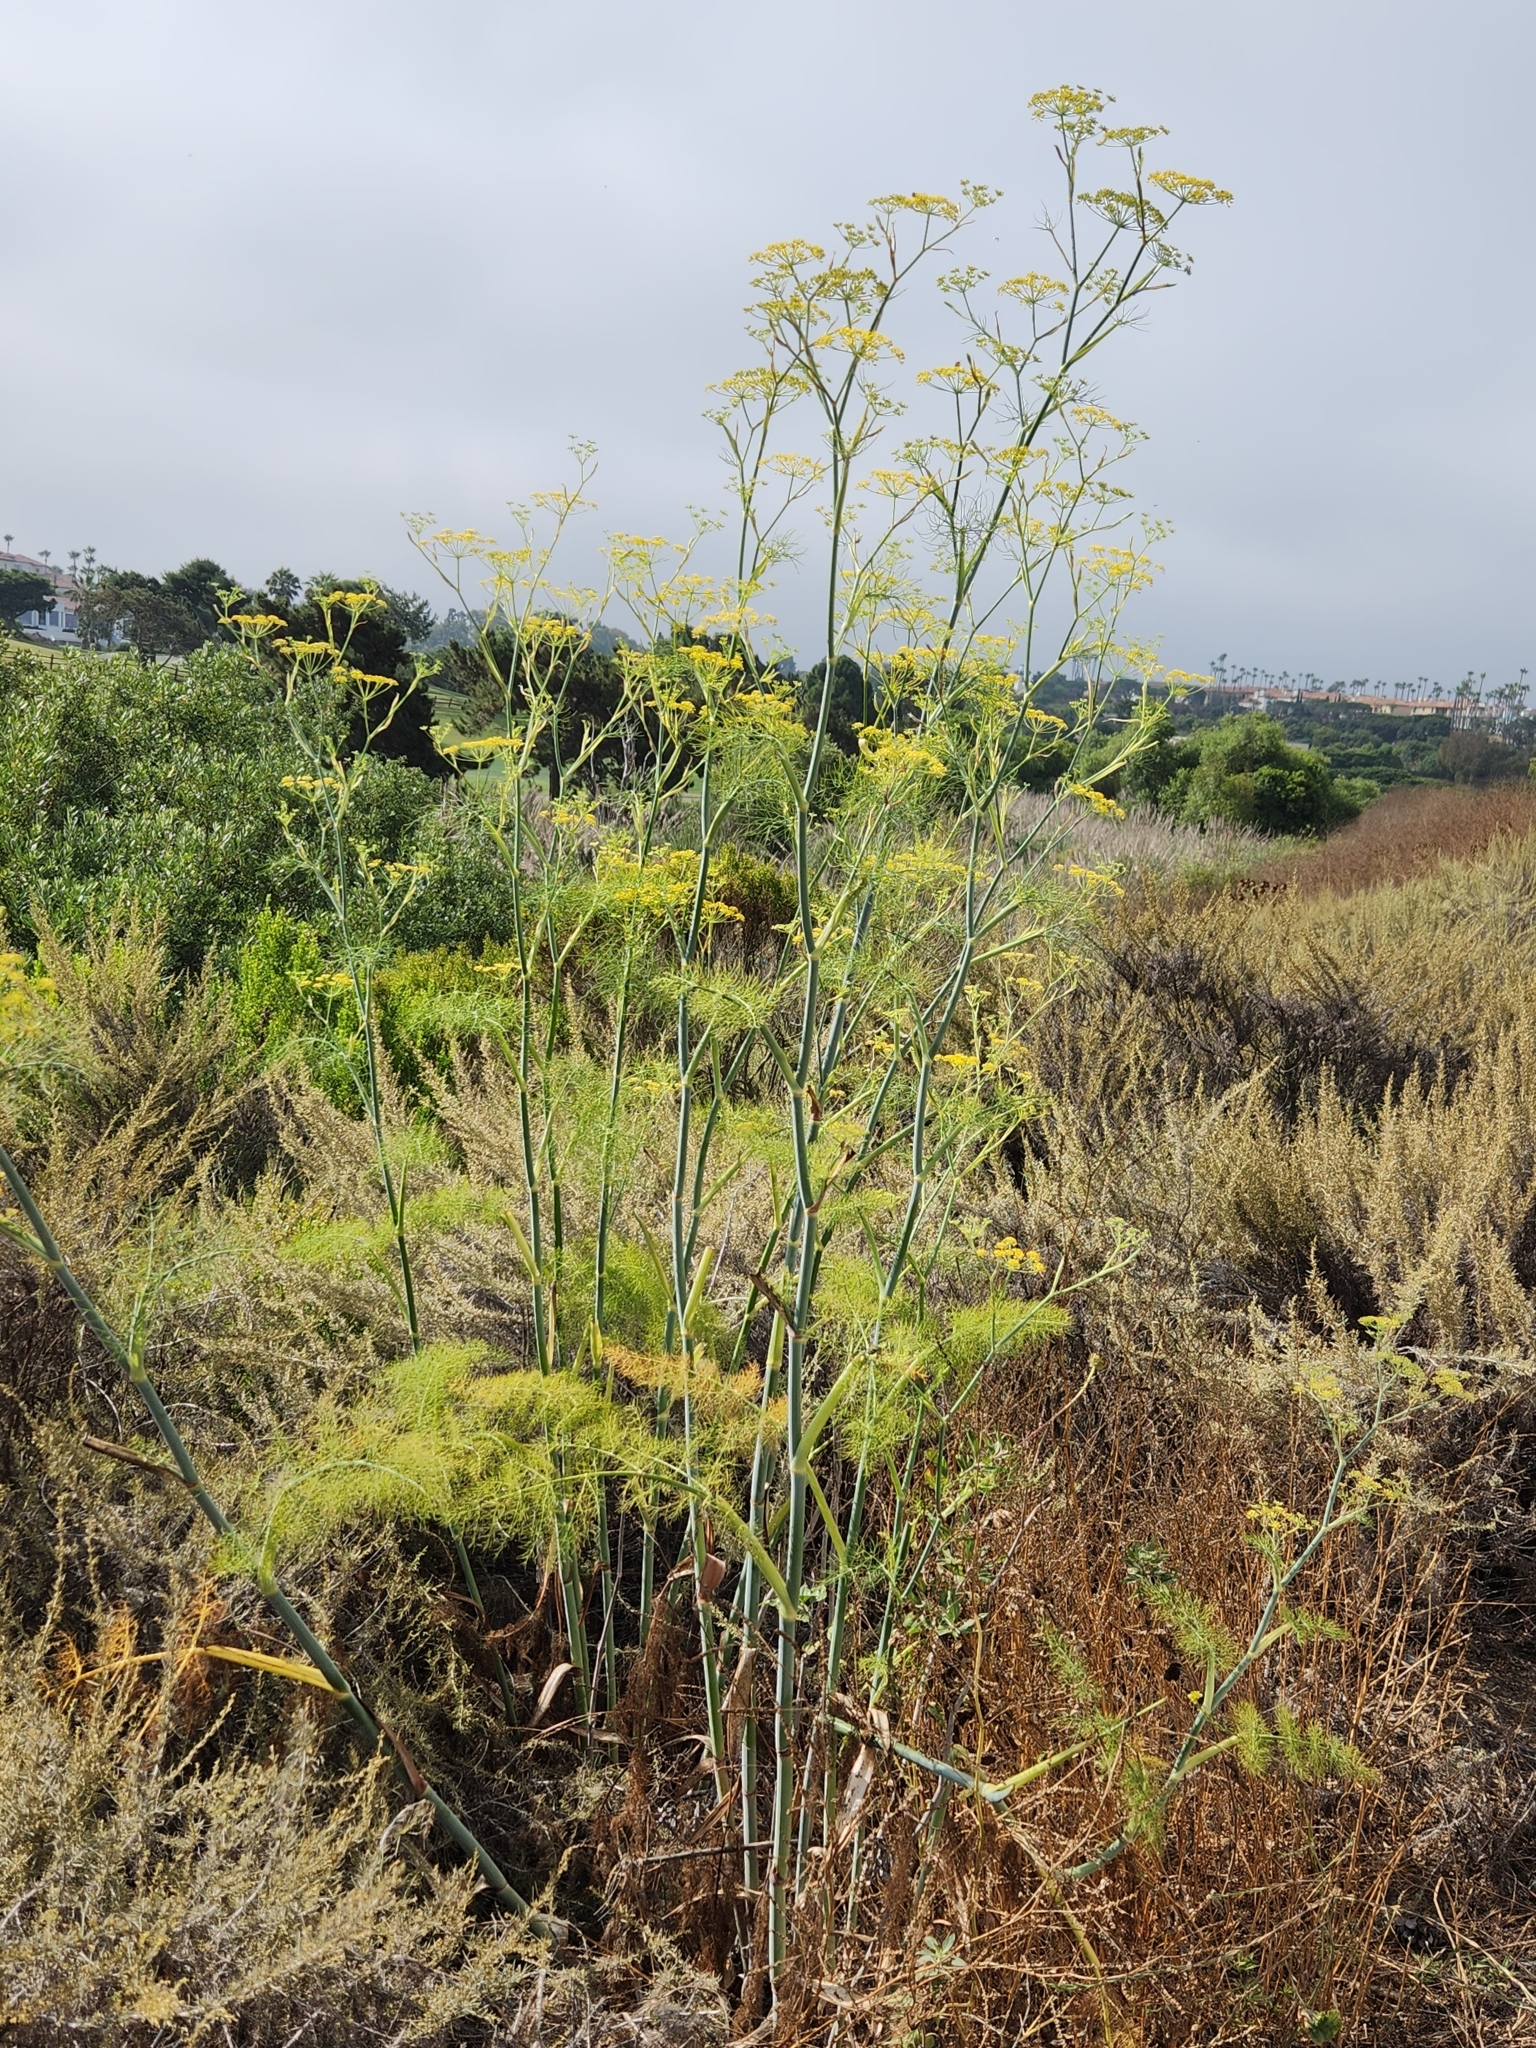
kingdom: Plantae
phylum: Tracheophyta
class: Magnoliopsida
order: Apiales
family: Apiaceae
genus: Foeniculum
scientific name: Foeniculum vulgare
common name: Fennel
